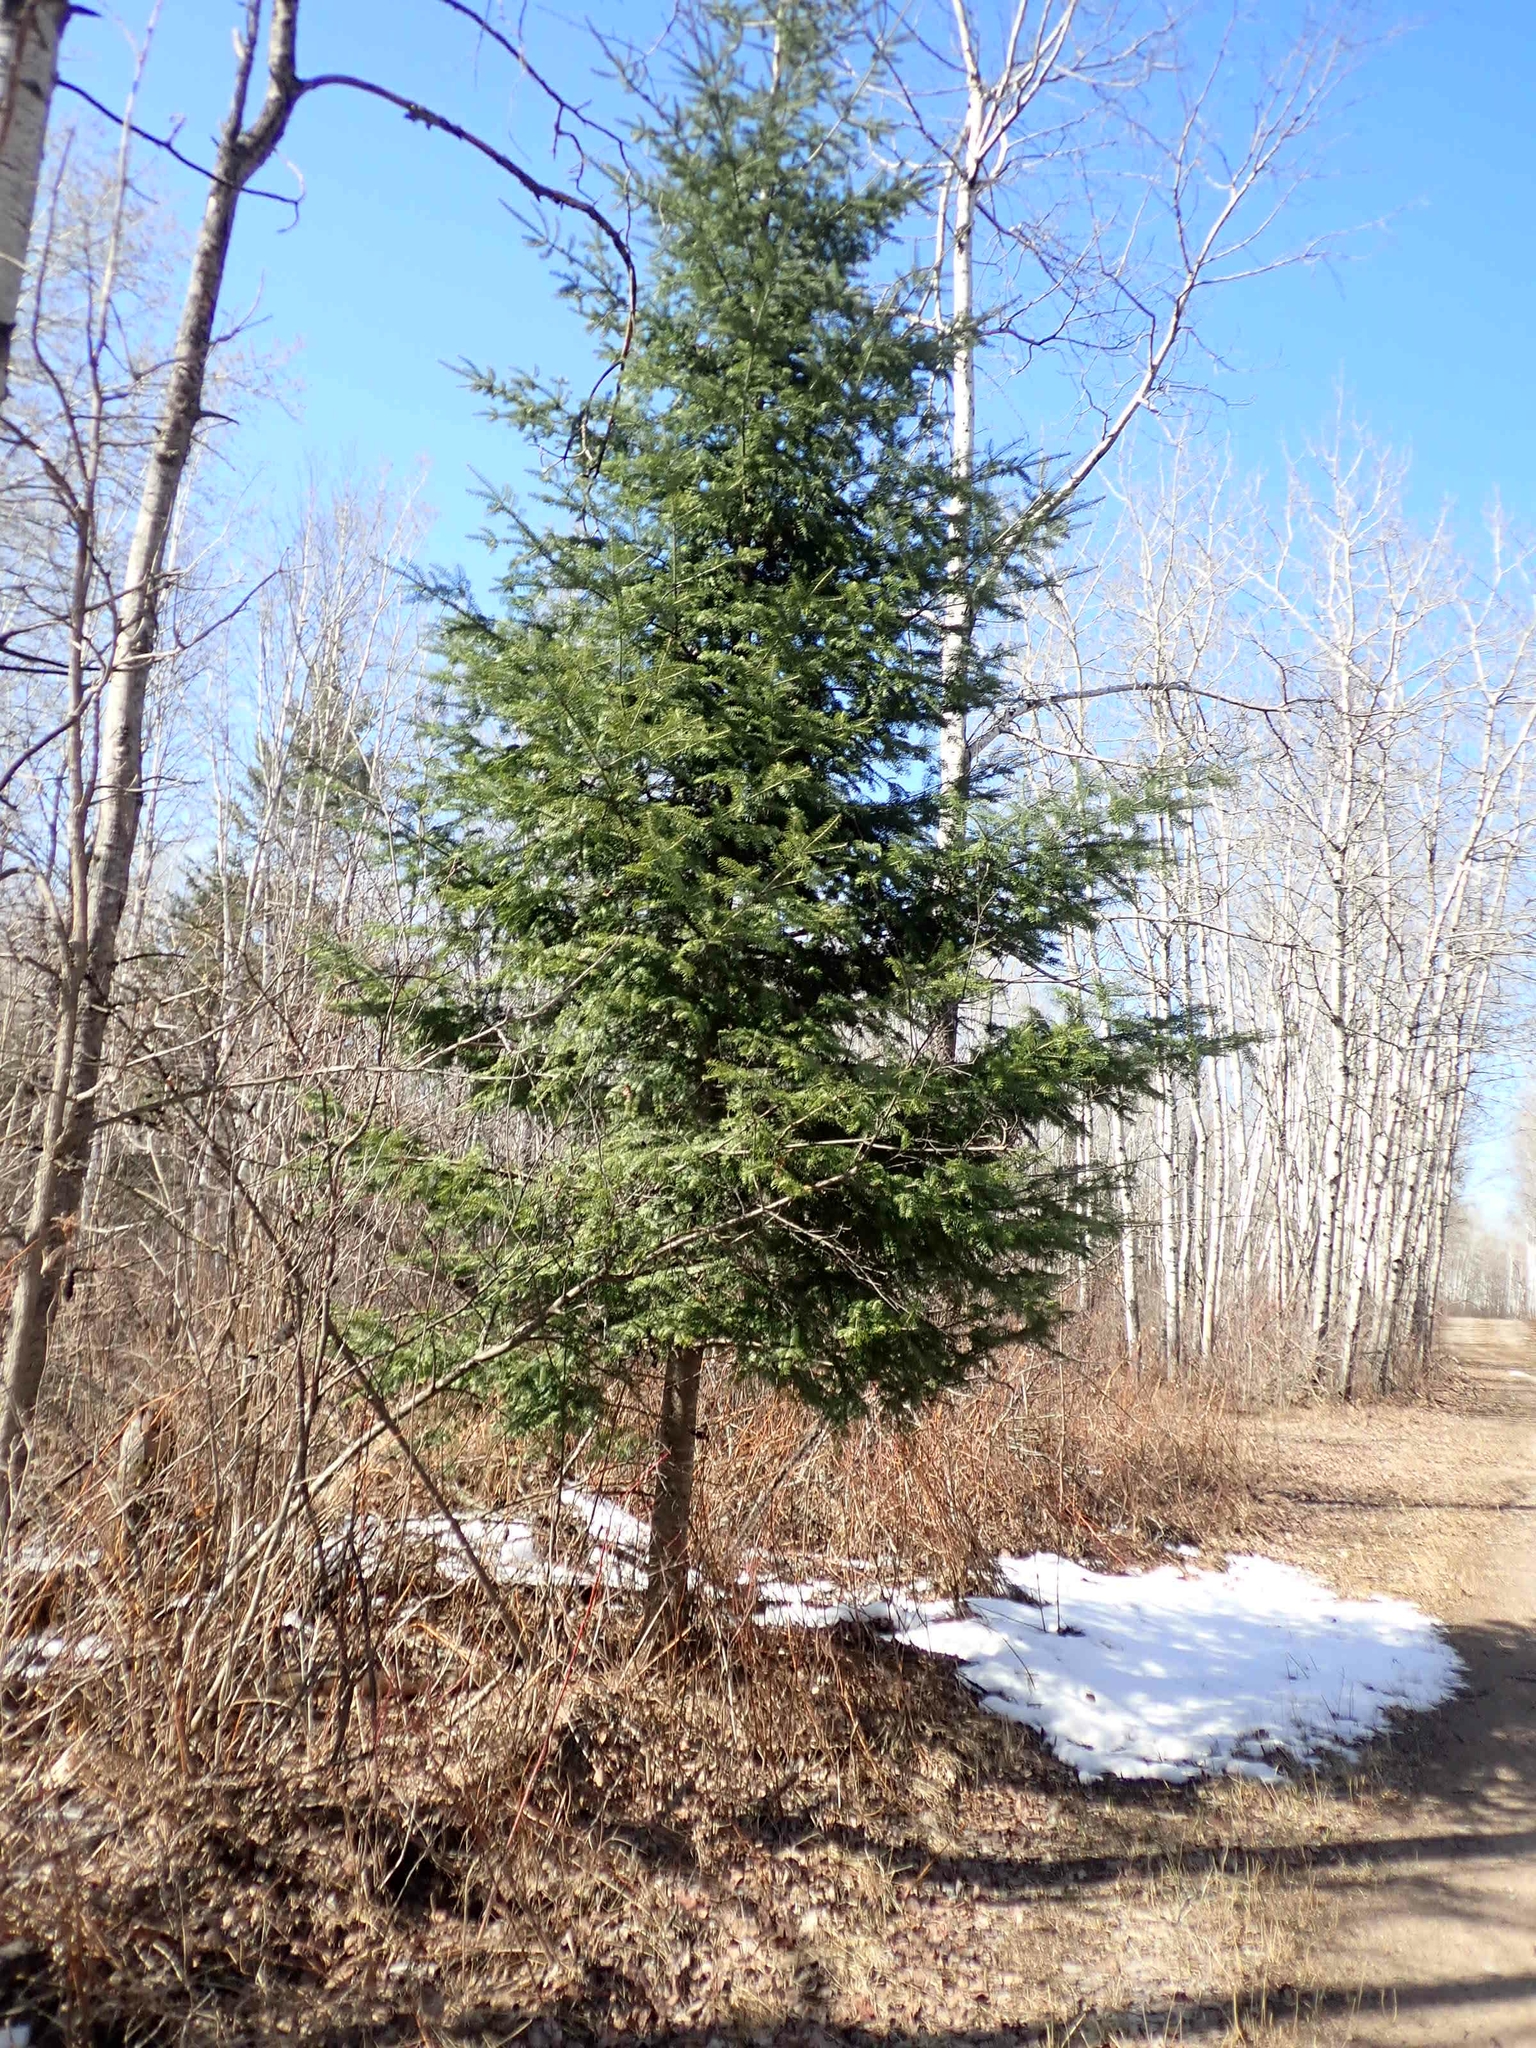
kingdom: Plantae
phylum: Tracheophyta
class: Pinopsida
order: Pinales
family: Pinaceae
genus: Abies
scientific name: Abies balsamea
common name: Balsam fir
